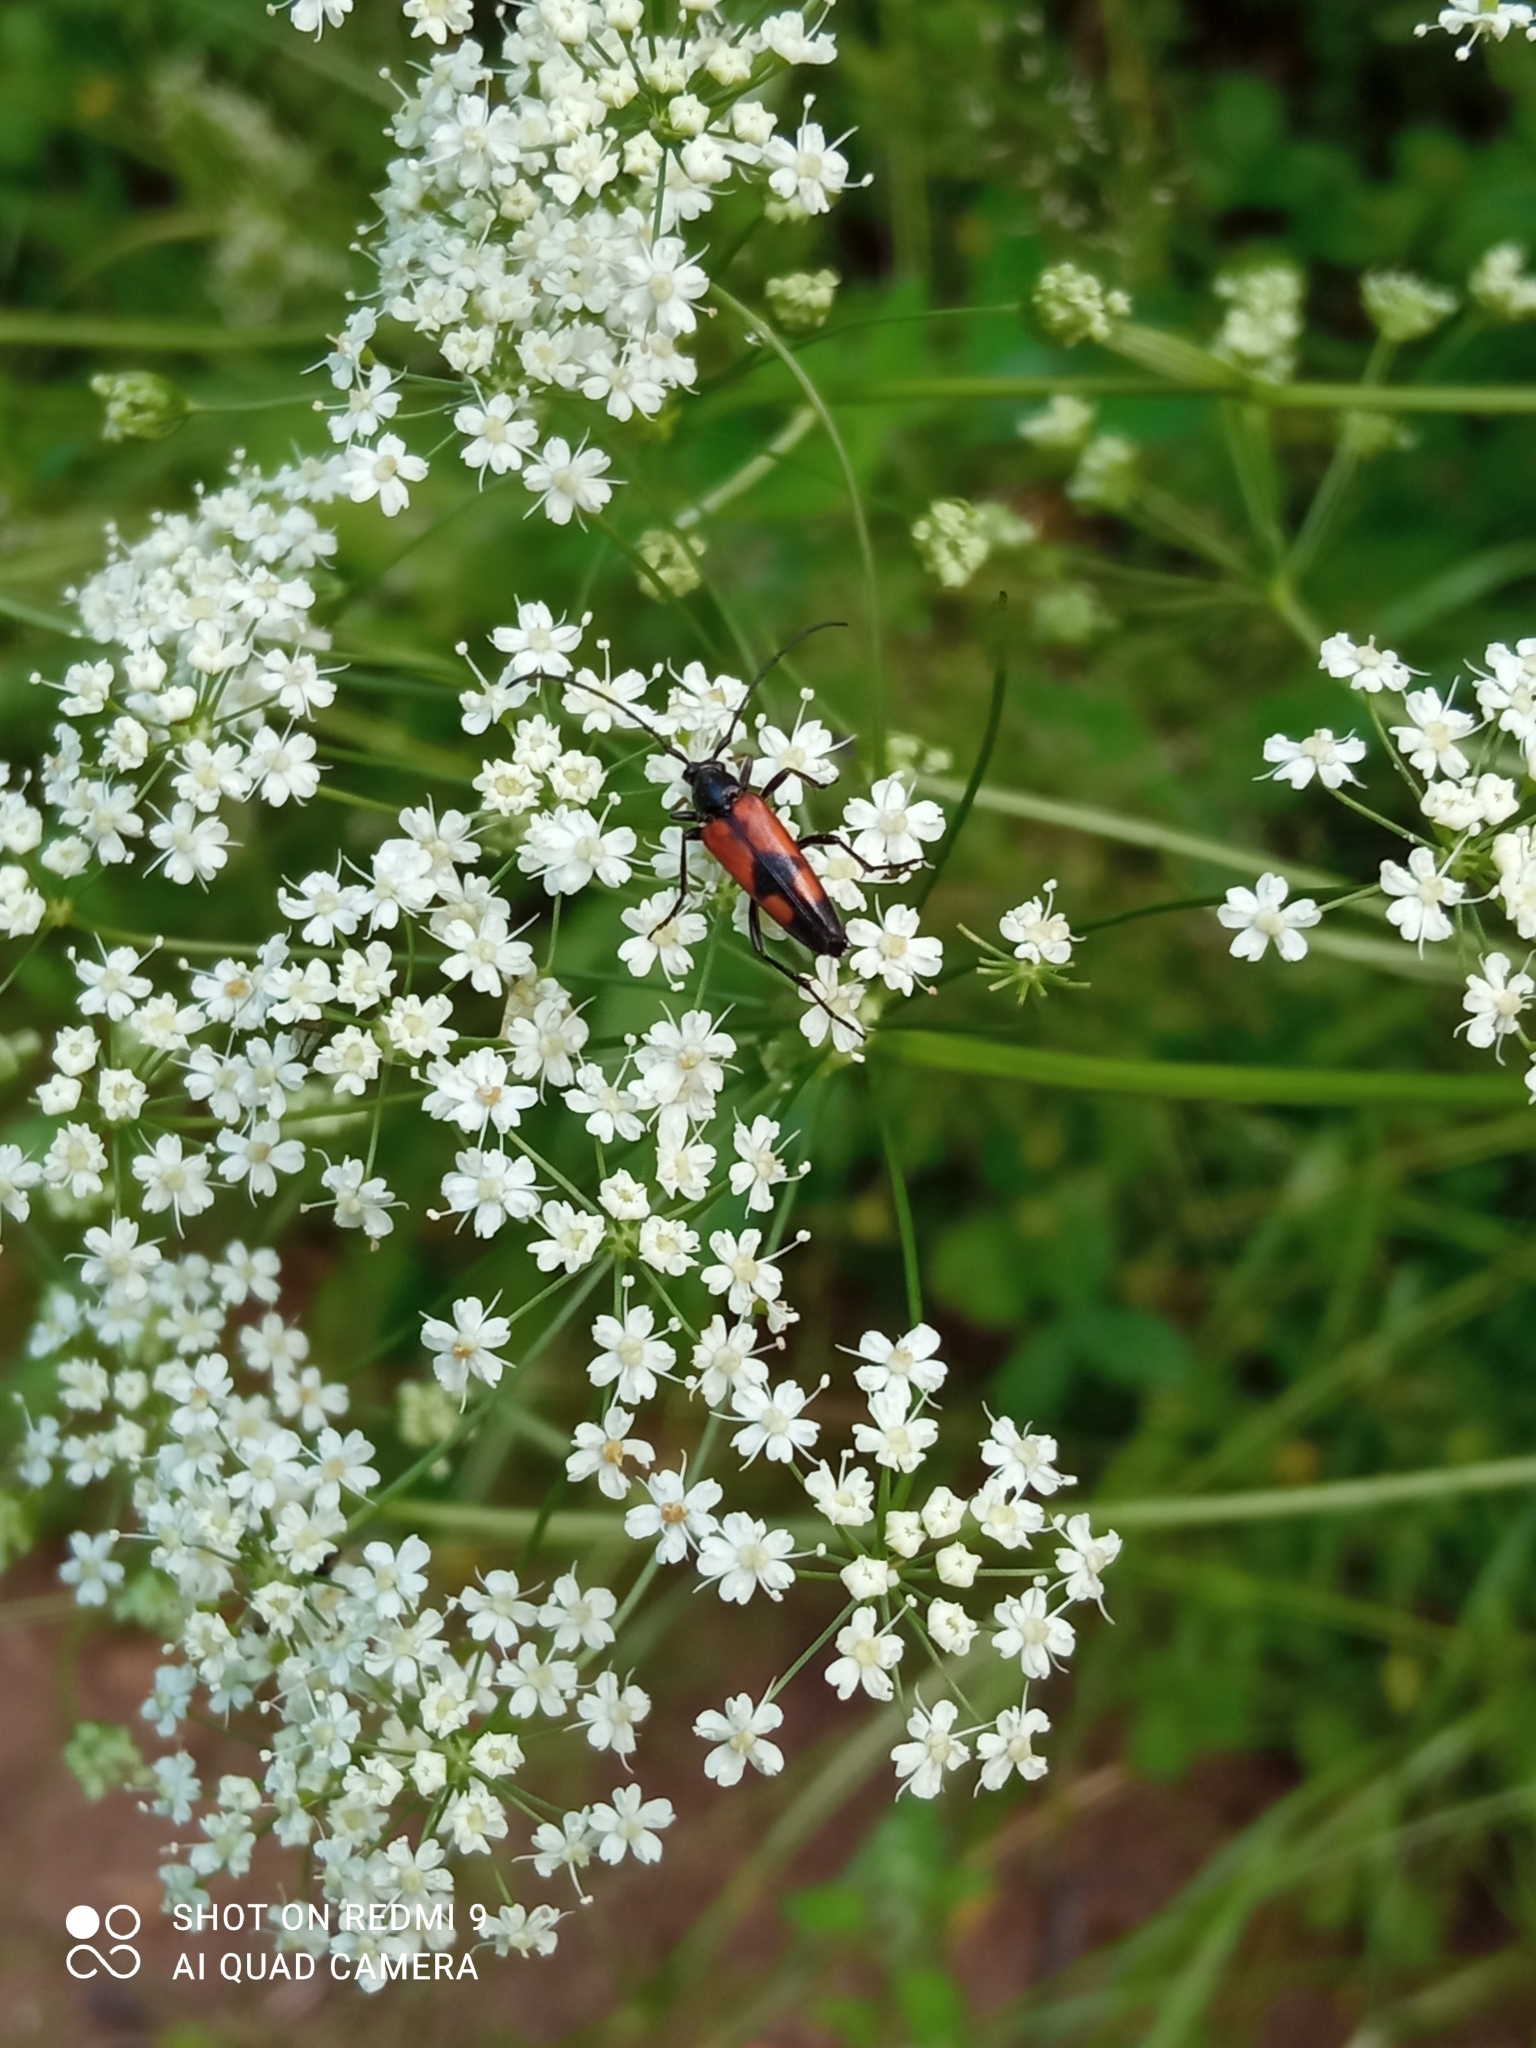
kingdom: Animalia
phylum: Arthropoda
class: Insecta
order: Coleoptera
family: Cerambycidae
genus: Stenurella
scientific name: Stenurella bifasciata
